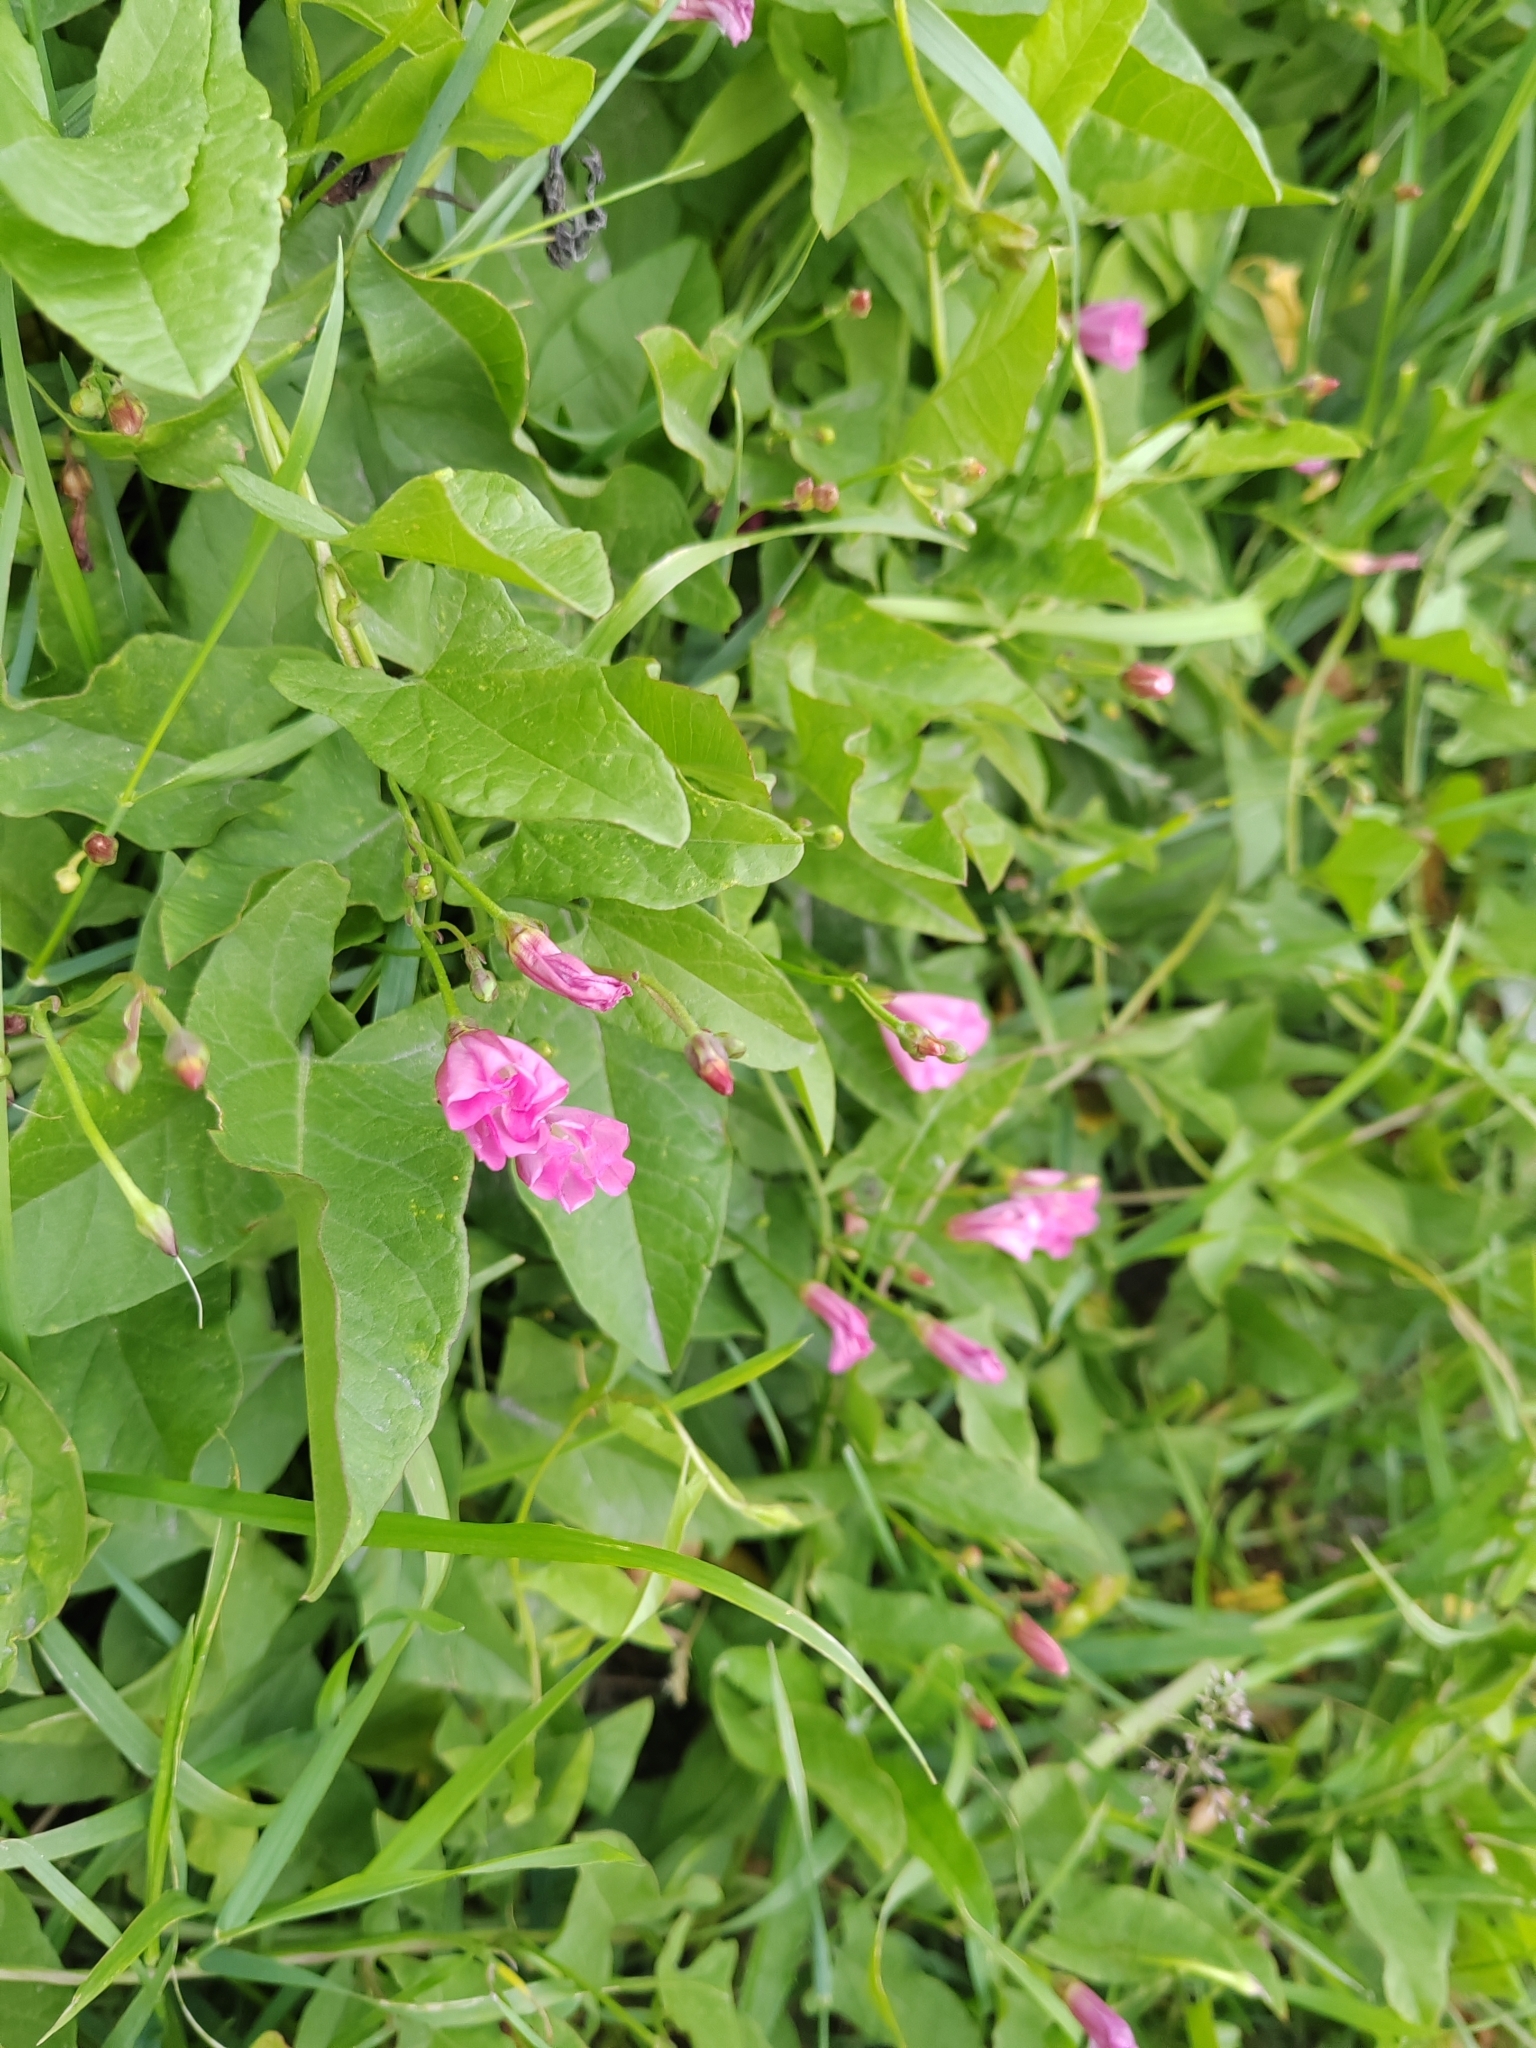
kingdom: Plantae
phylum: Tracheophyta
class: Magnoliopsida
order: Solanales
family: Convolvulaceae
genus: Convolvulus
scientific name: Convolvulus arvensis
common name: Field bindweed
